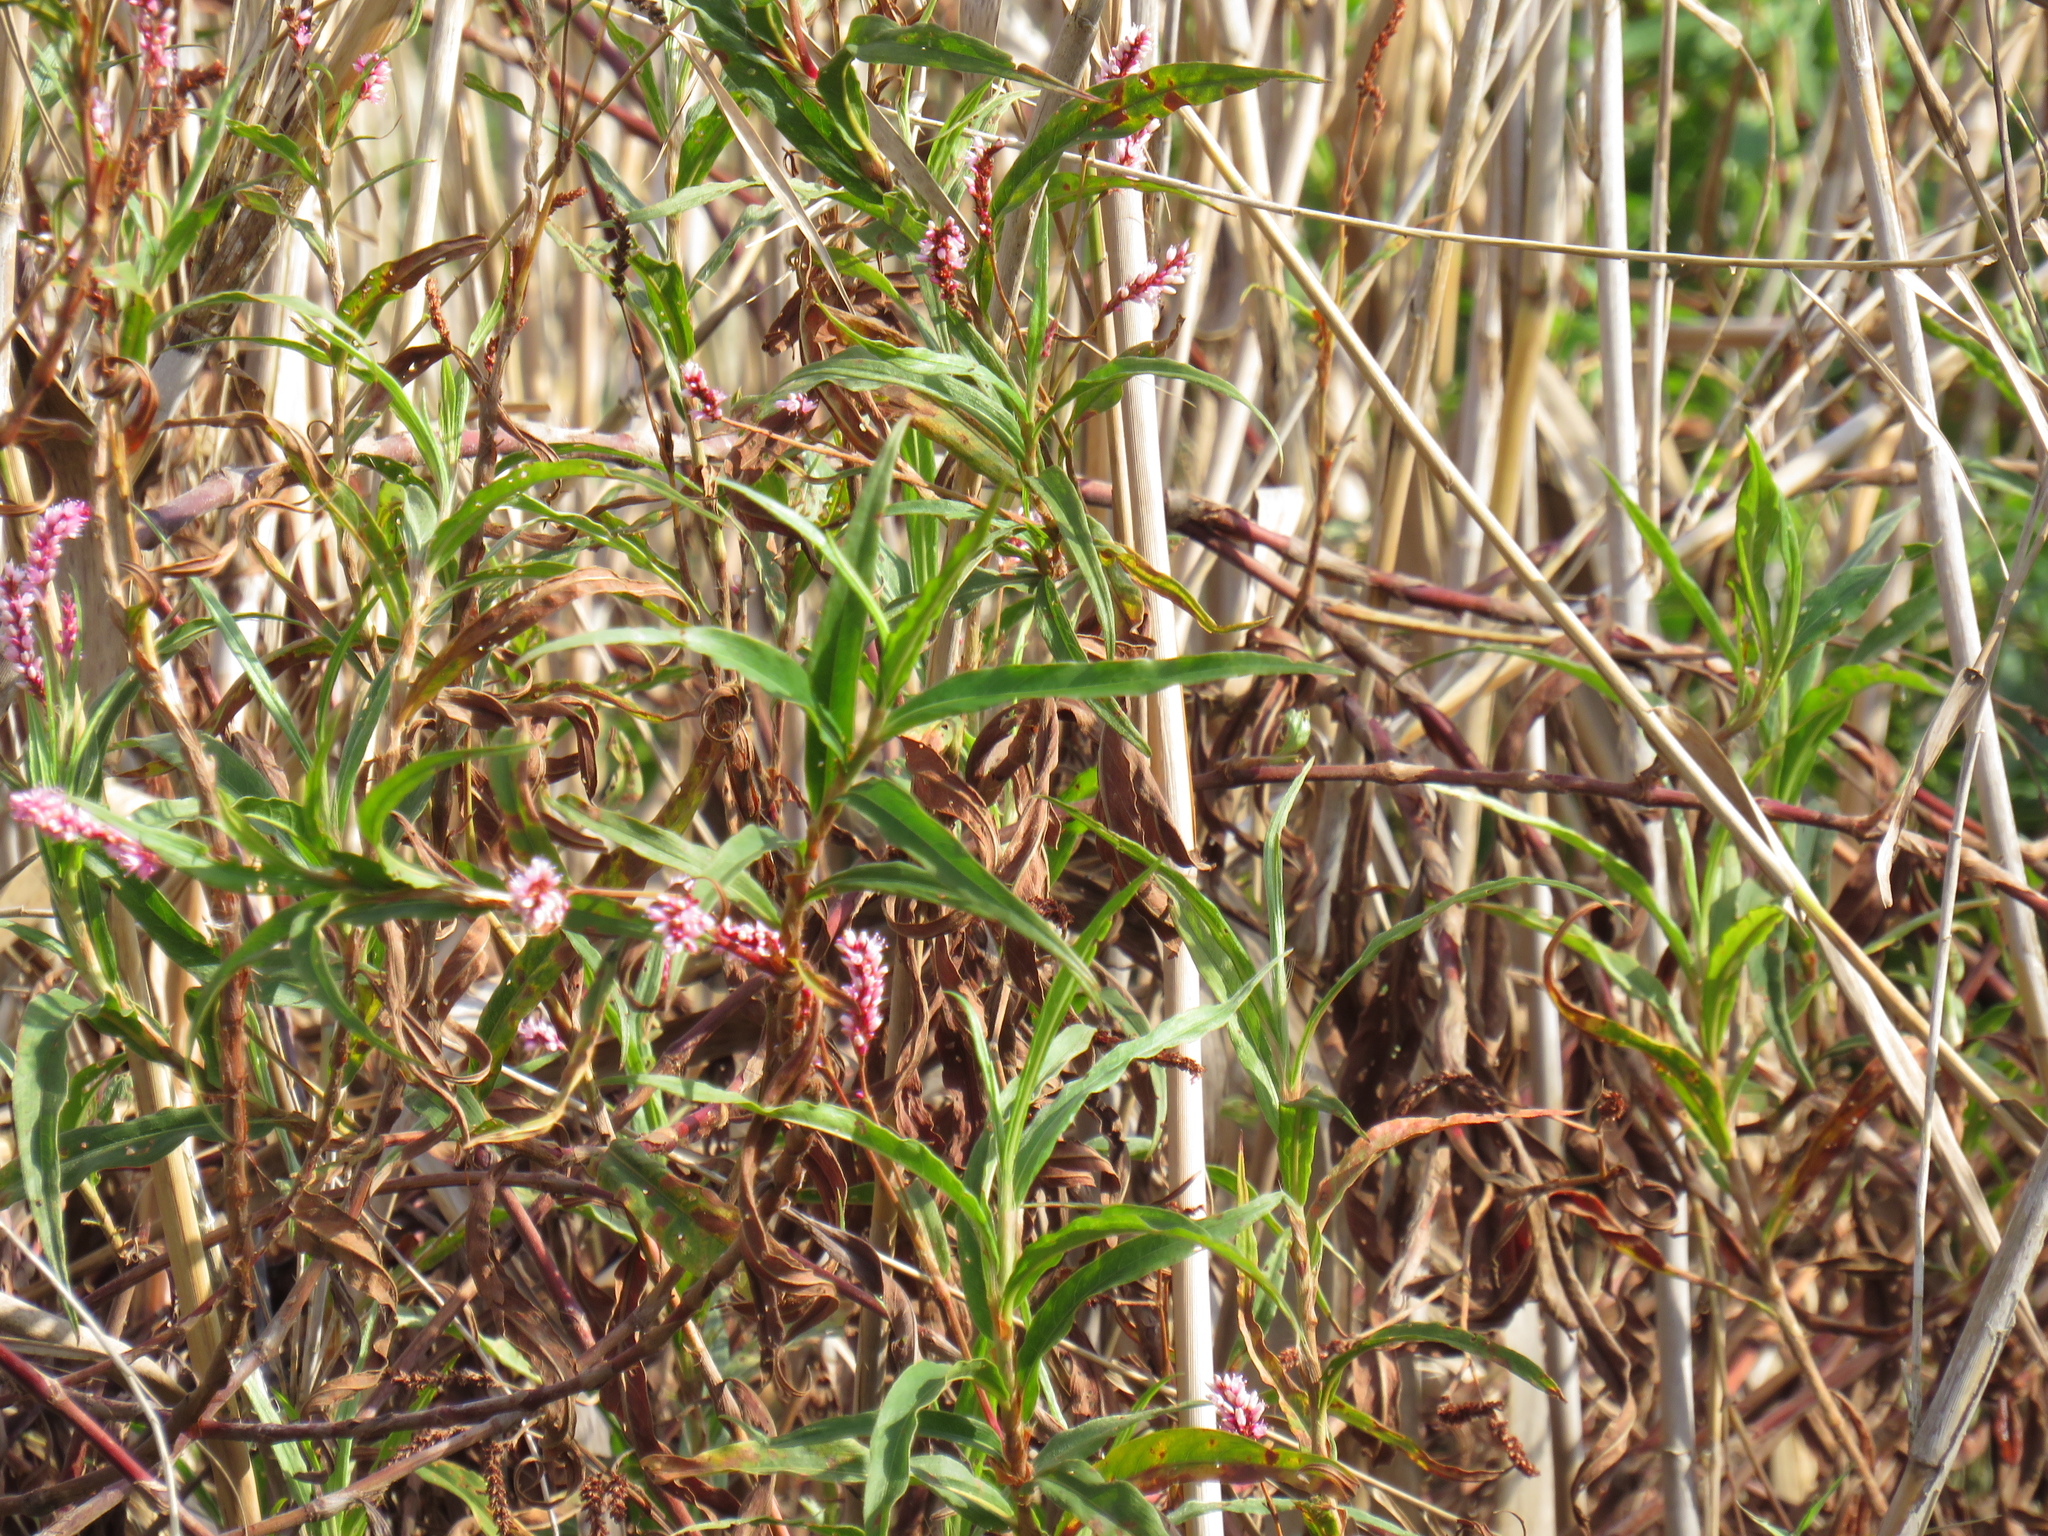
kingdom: Plantae
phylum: Tracheophyta
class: Magnoliopsida
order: Caryophyllales
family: Polygonaceae
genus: Persicaria
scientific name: Persicaria madagascariensis
